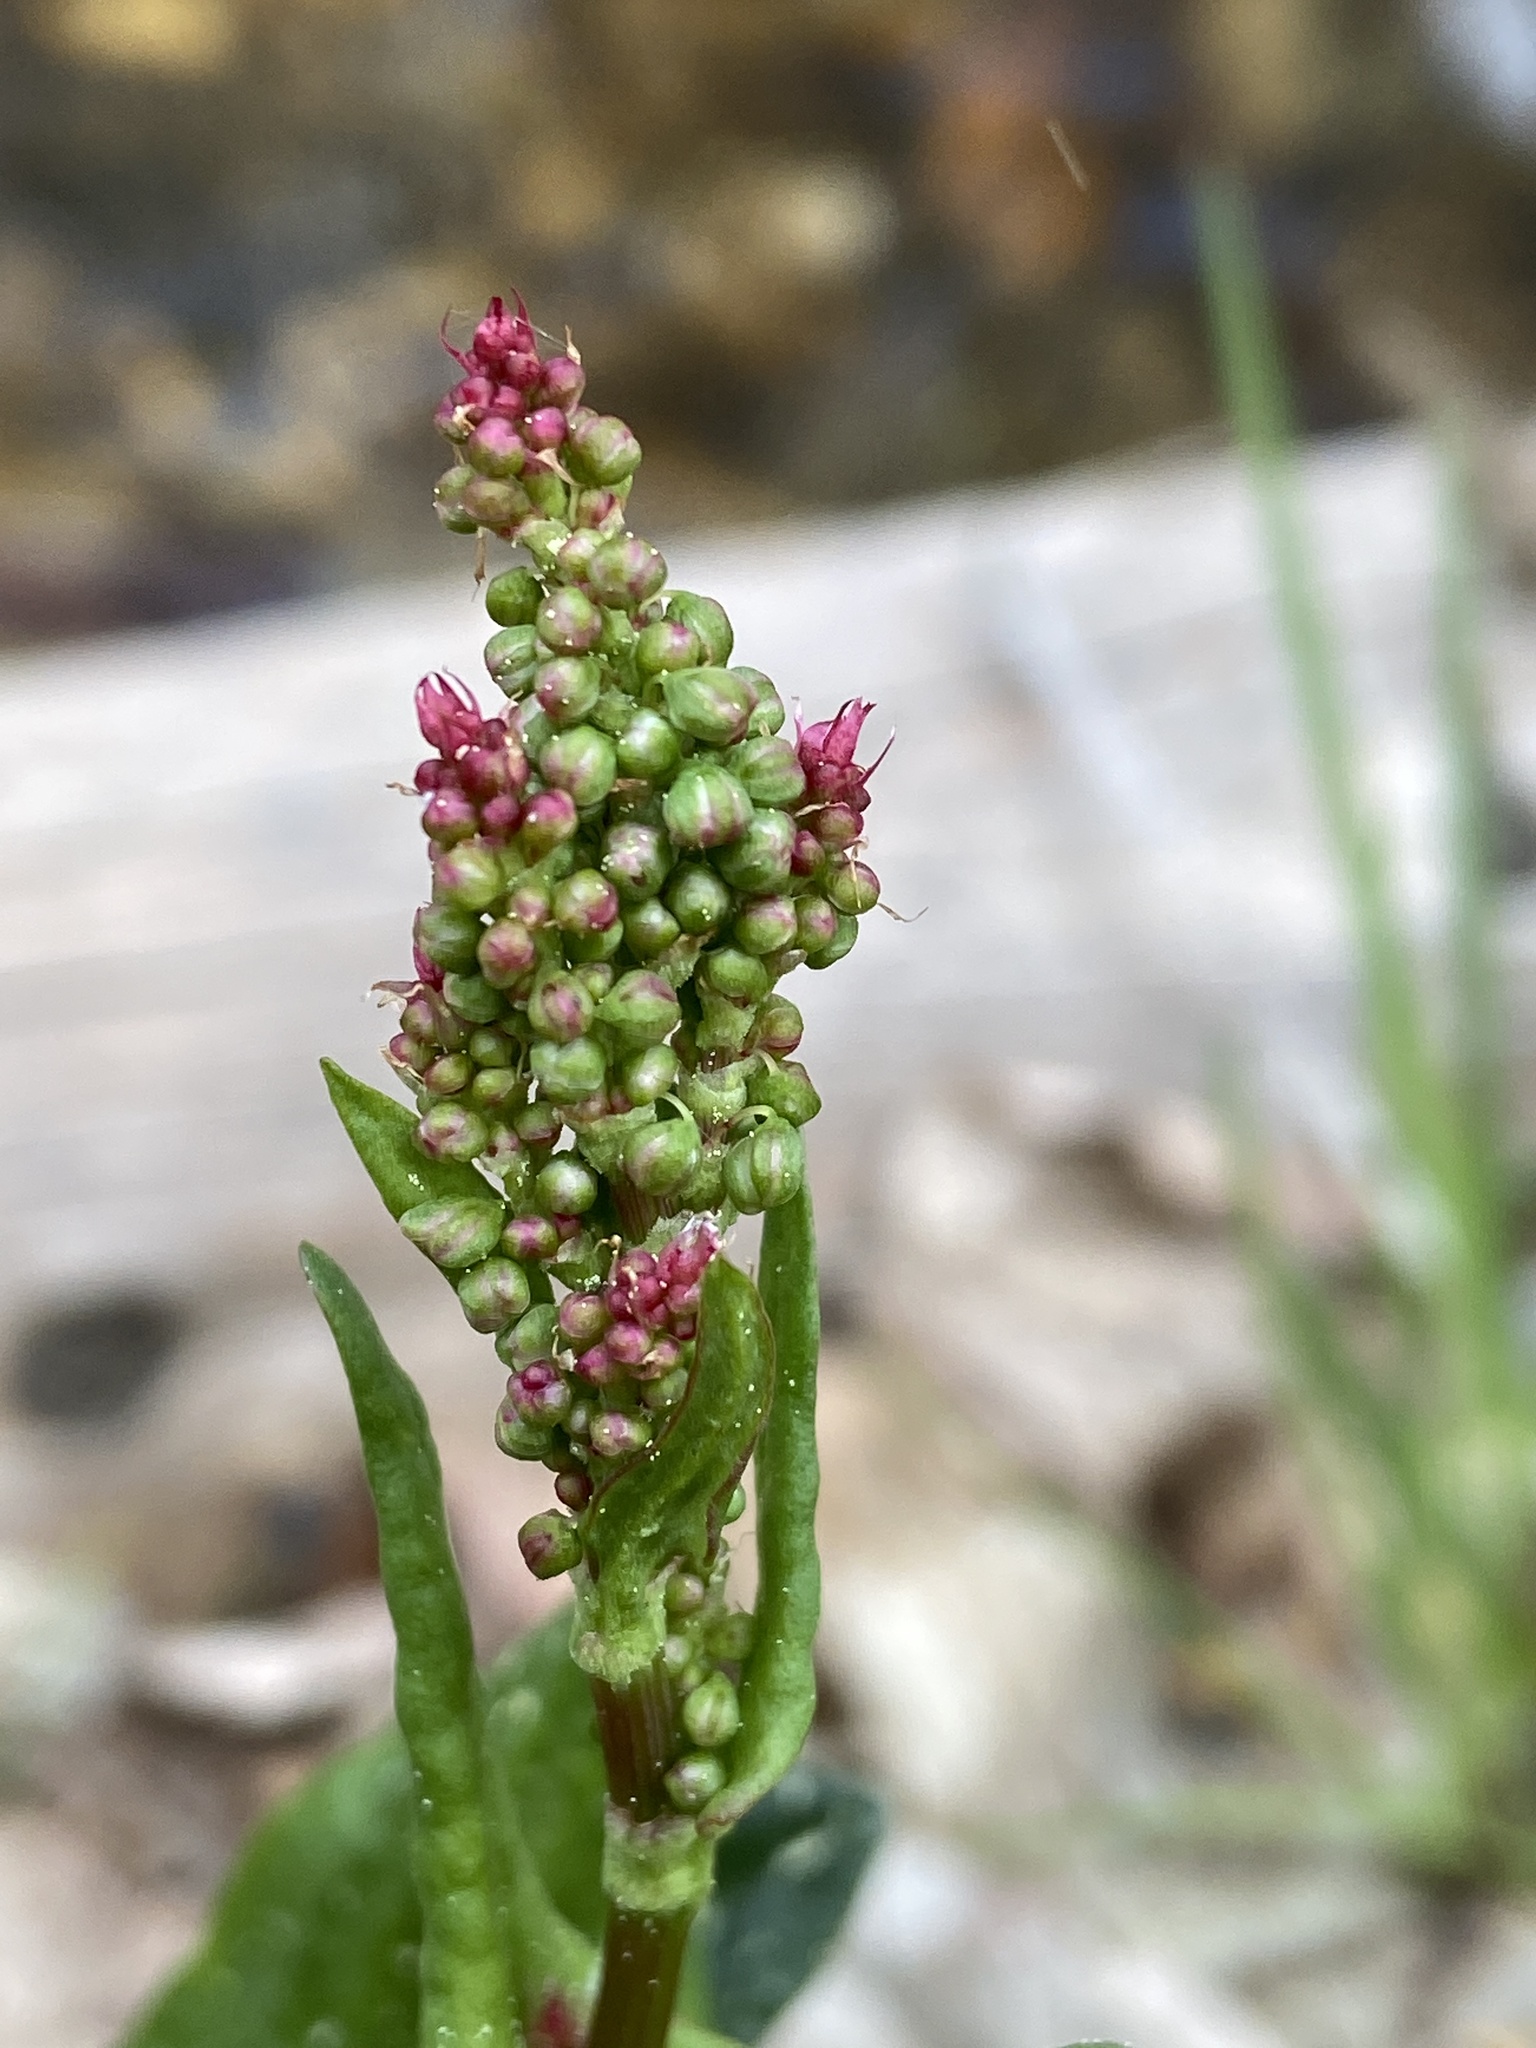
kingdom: Plantae
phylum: Tracheophyta
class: Magnoliopsida
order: Caryophyllales
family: Polygonaceae
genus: Rumex
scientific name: Rumex acetosa
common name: Garden sorrel
